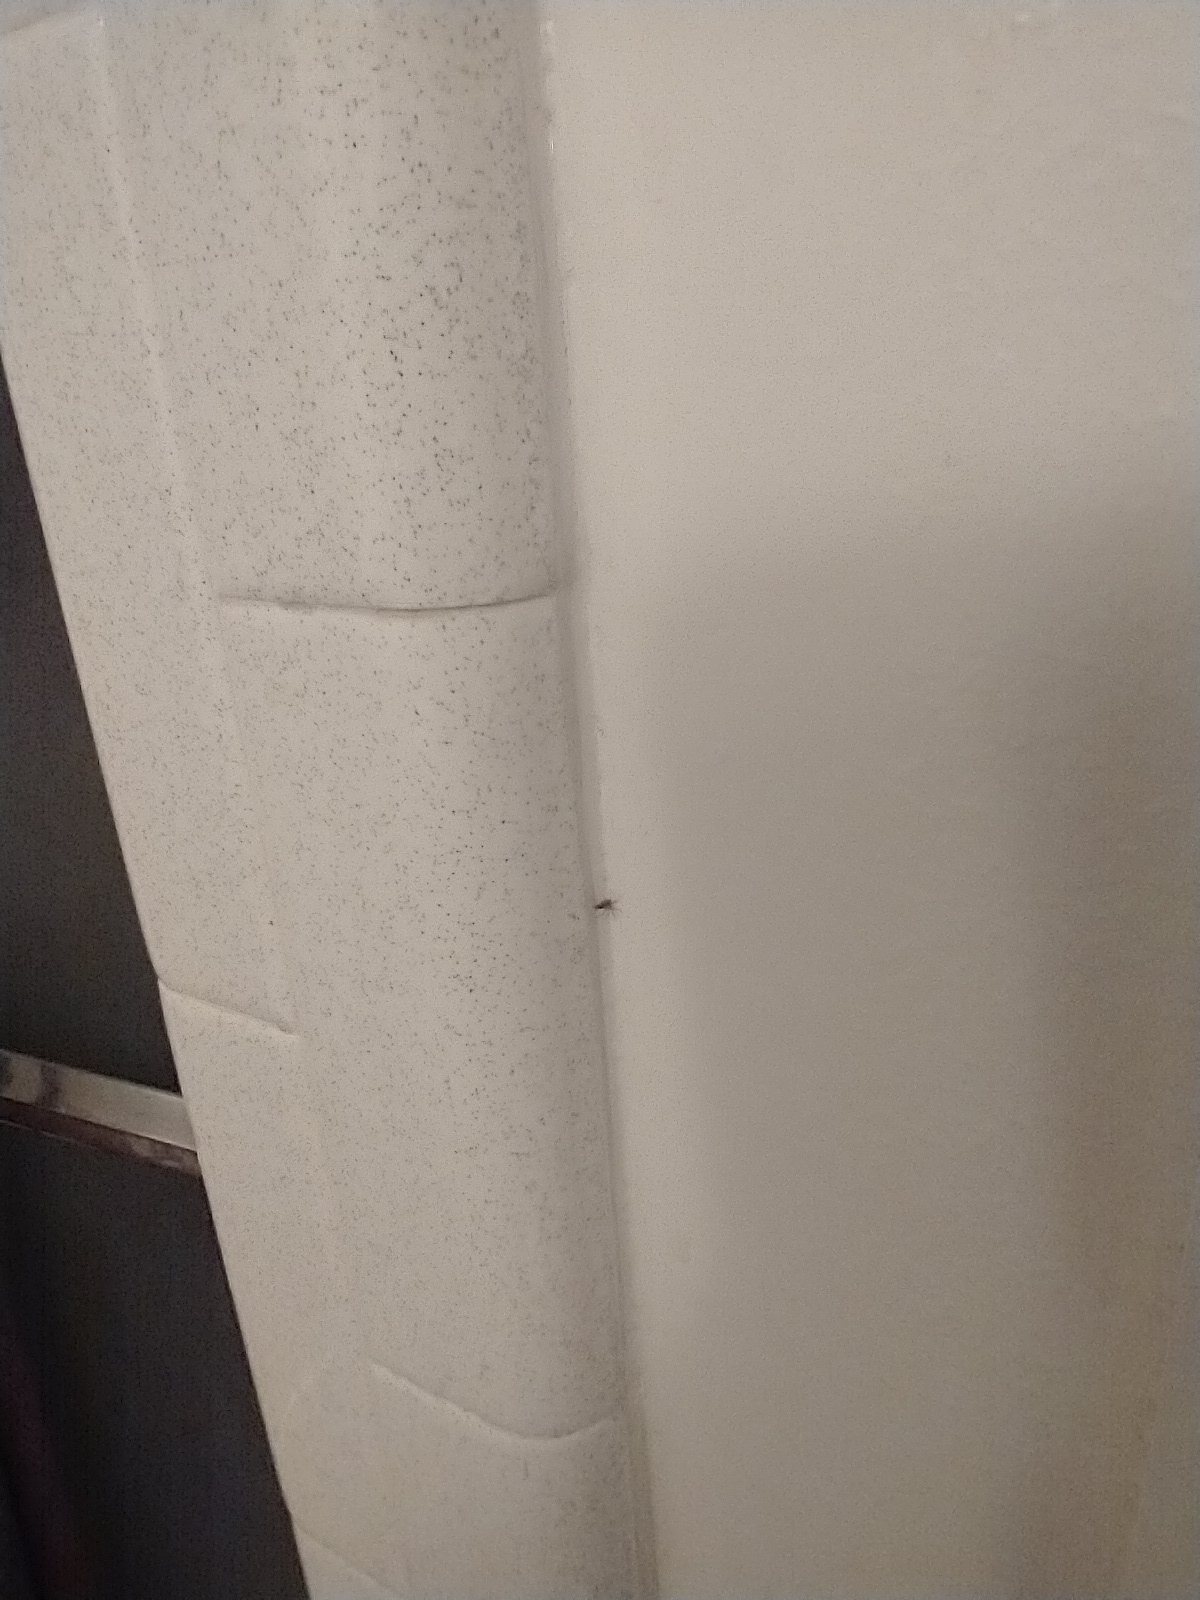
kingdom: Animalia
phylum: Arthropoda
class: Arachnida
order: Araneae
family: Oecobiidae
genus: Oecobius
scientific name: Oecobius
